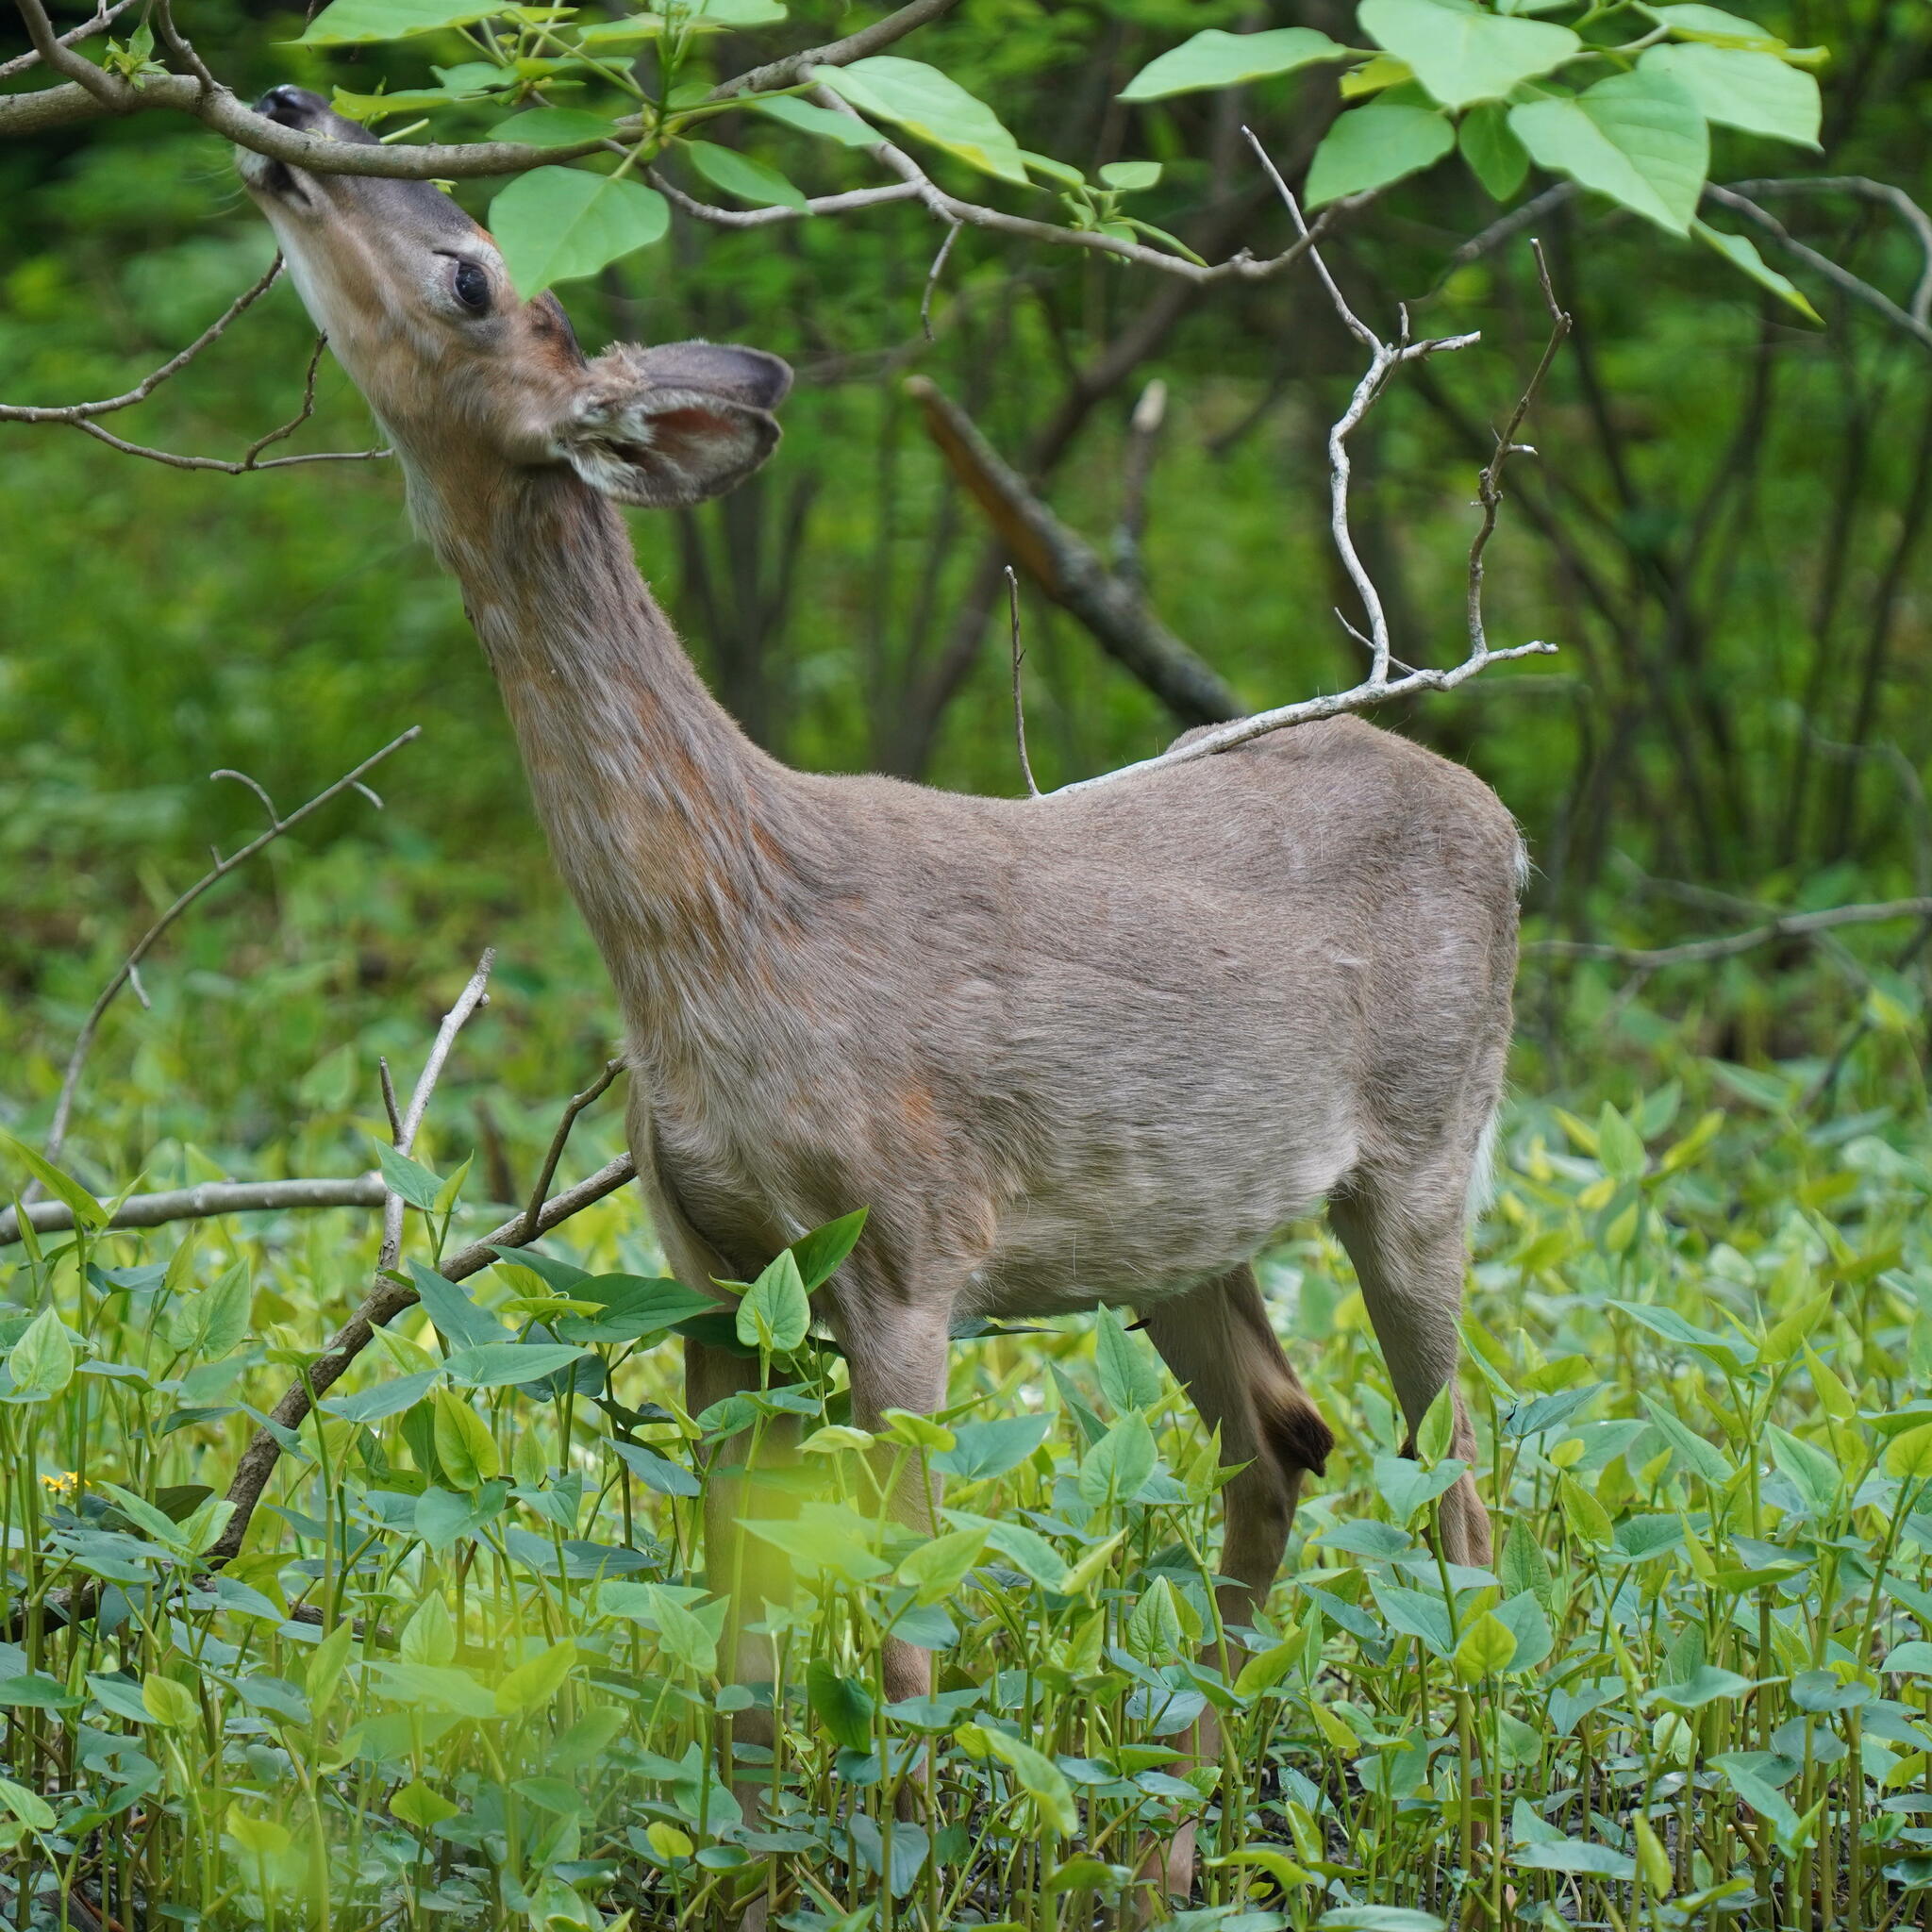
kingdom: Animalia
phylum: Chordata
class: Mammalia
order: Artiodactyla
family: Cervidae
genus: Odocoileus
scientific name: Odocoileus virginianus
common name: White-tailed deer
